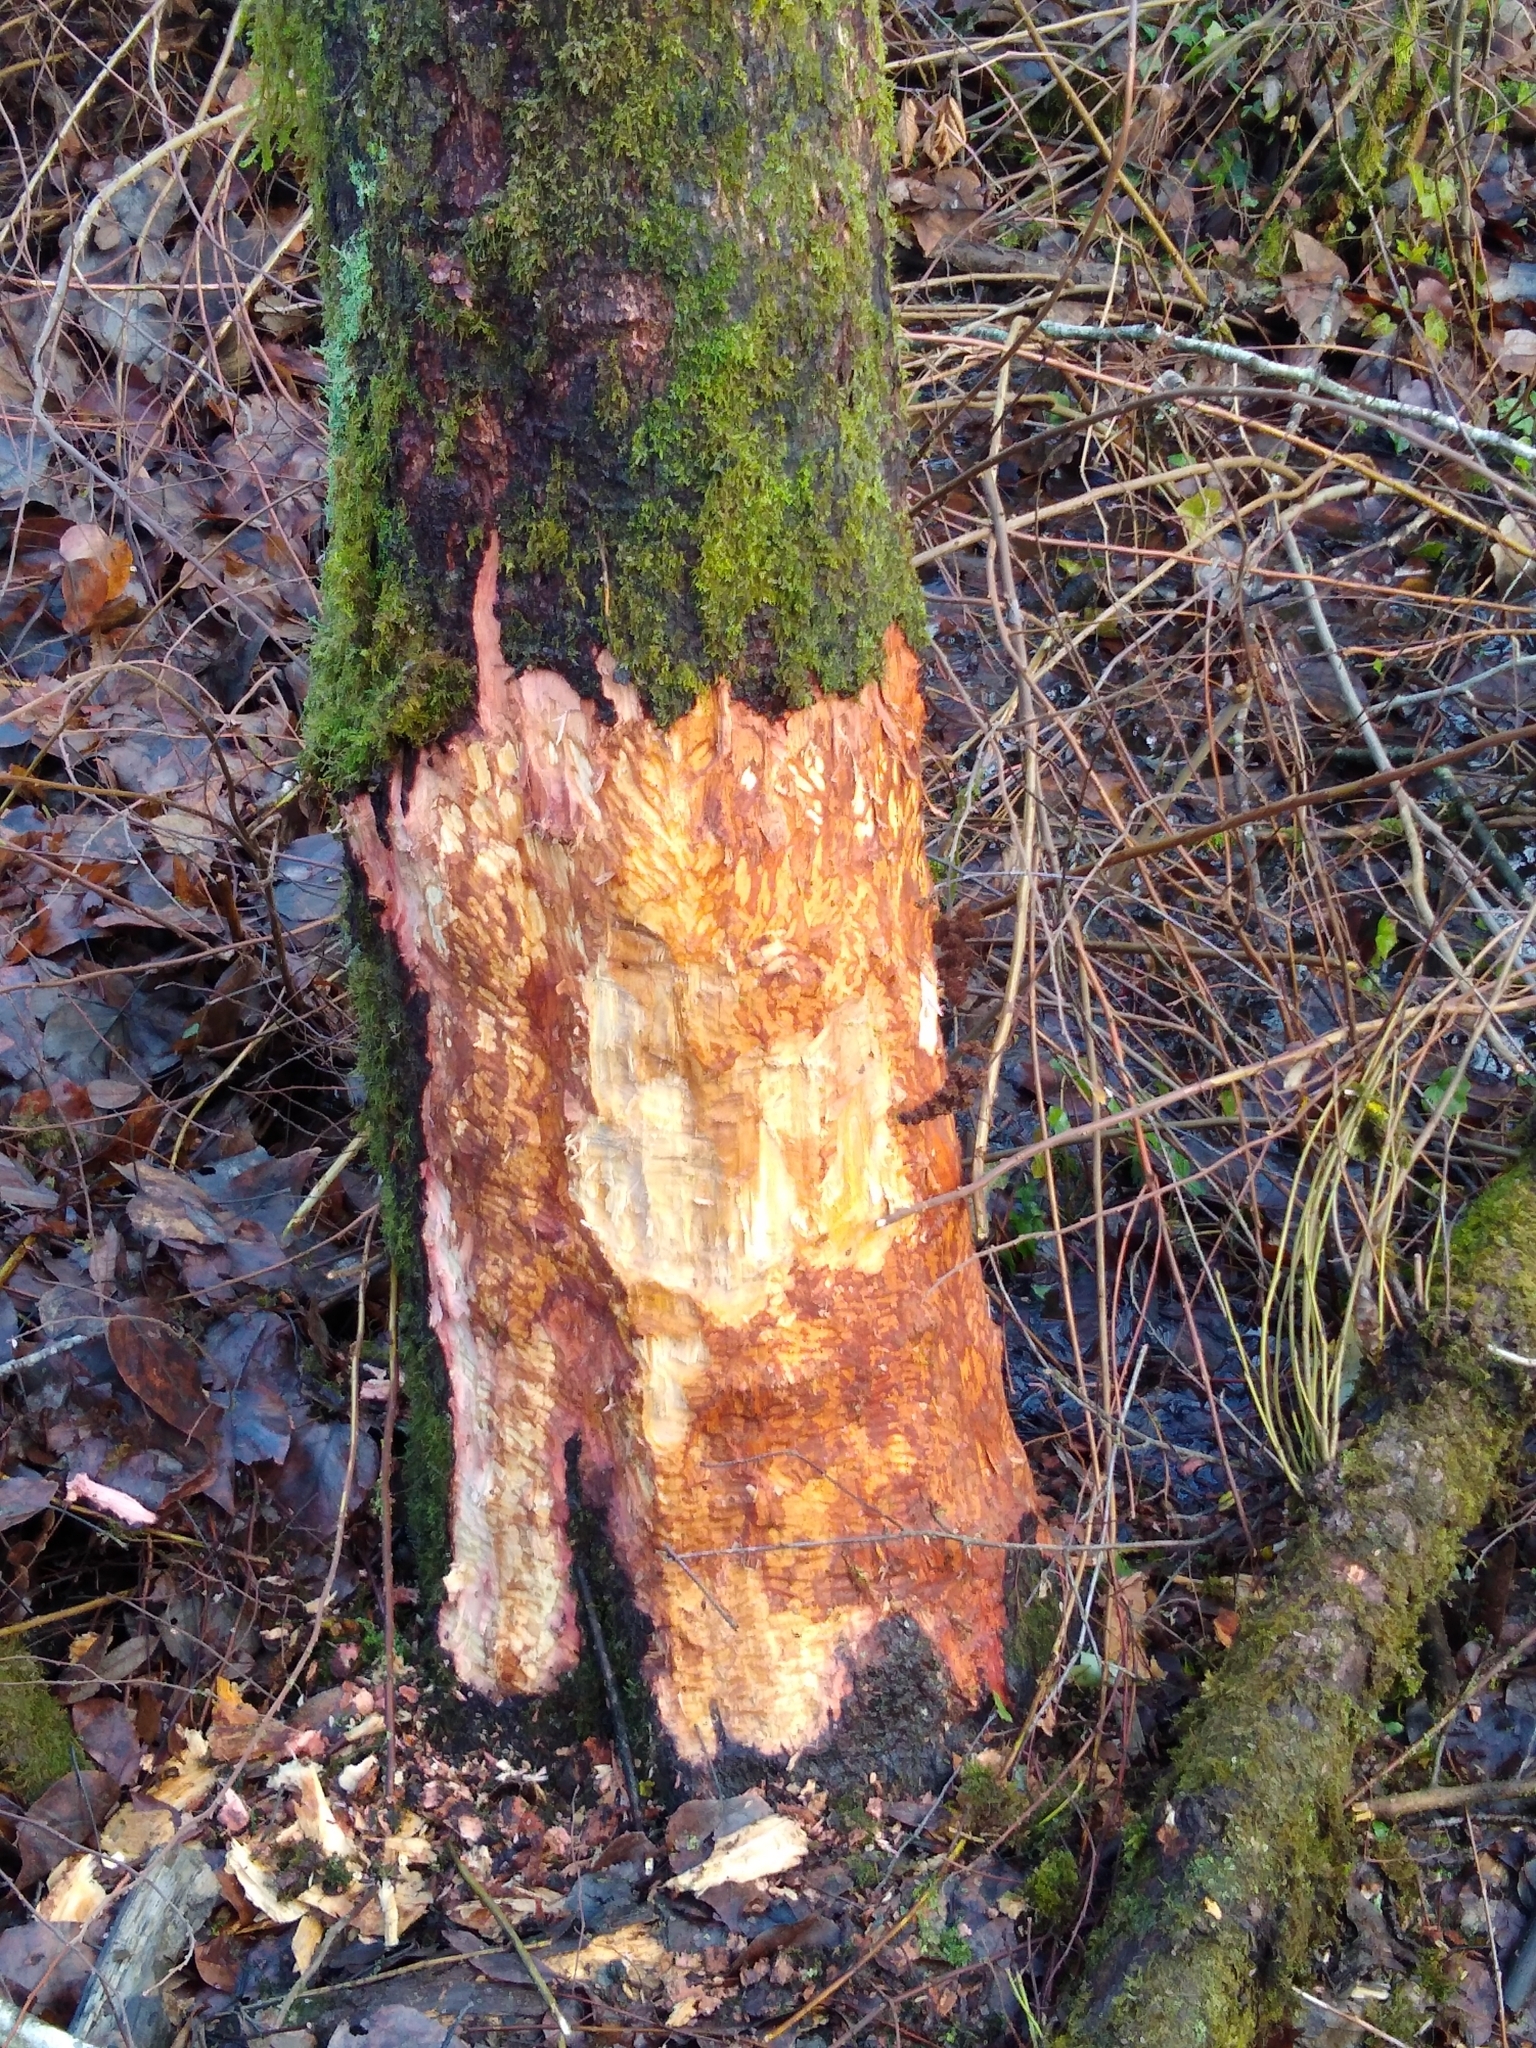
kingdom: Animalia
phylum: Chordata
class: Mammalia
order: Rodentia
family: Castoridae
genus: Castor
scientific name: Castor canadensis
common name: American beaver
